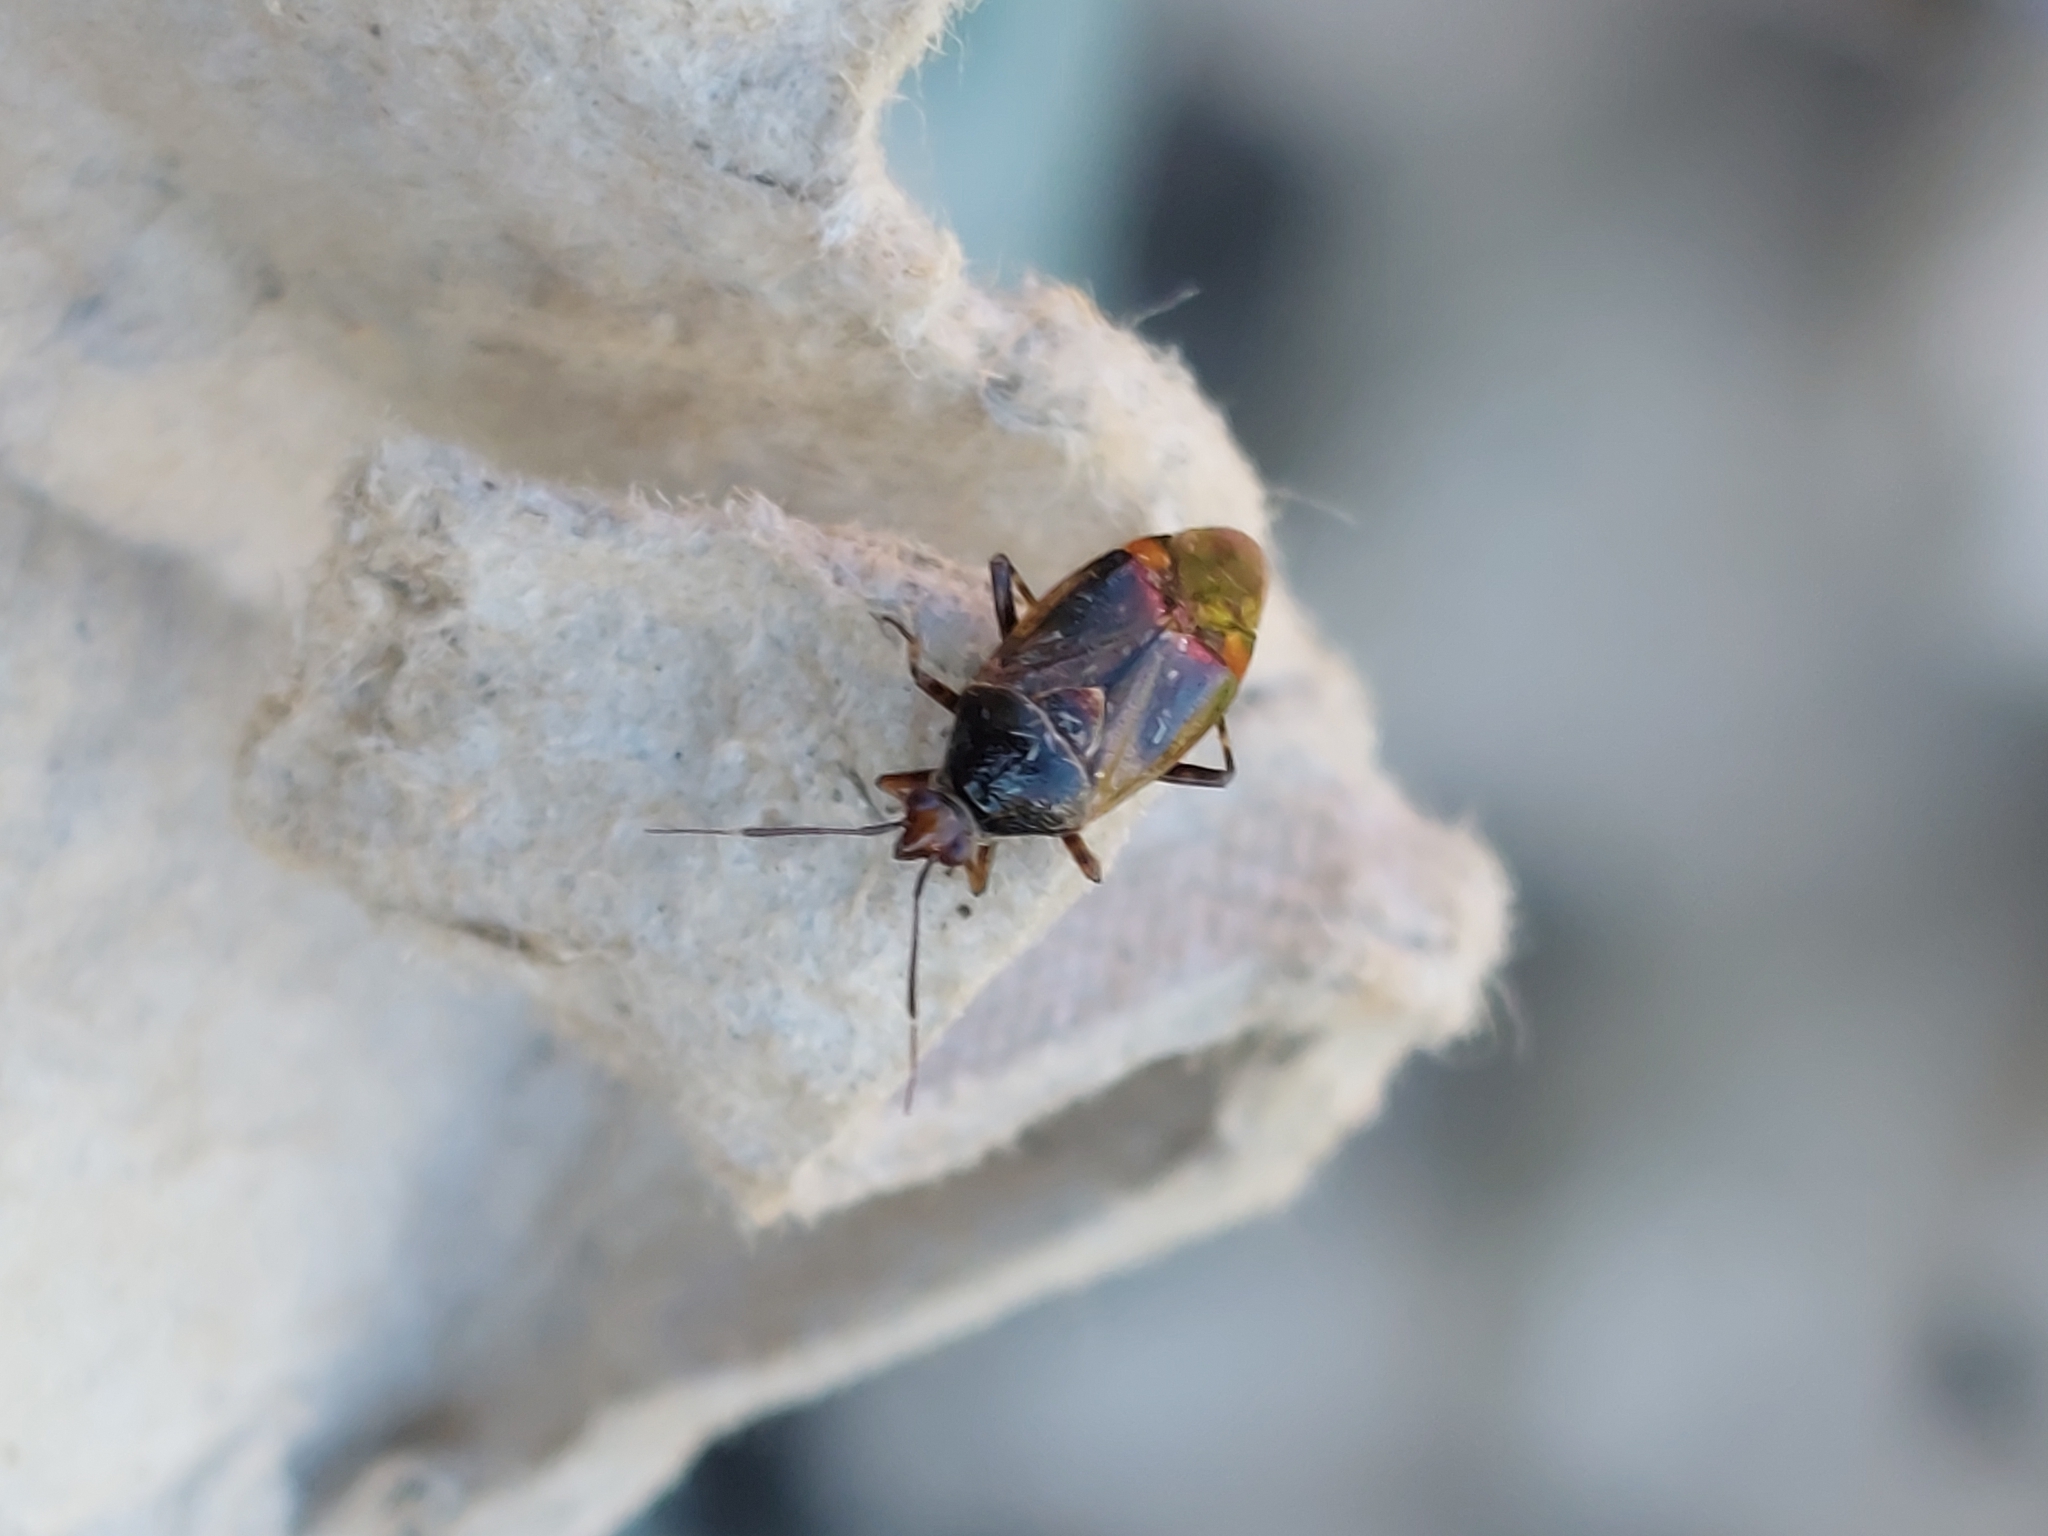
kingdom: Animalia
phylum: Arthropoda
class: Insecta
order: Hemiptera
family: Miridae
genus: Deraeocoris
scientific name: Deraeocoris flavilinea
